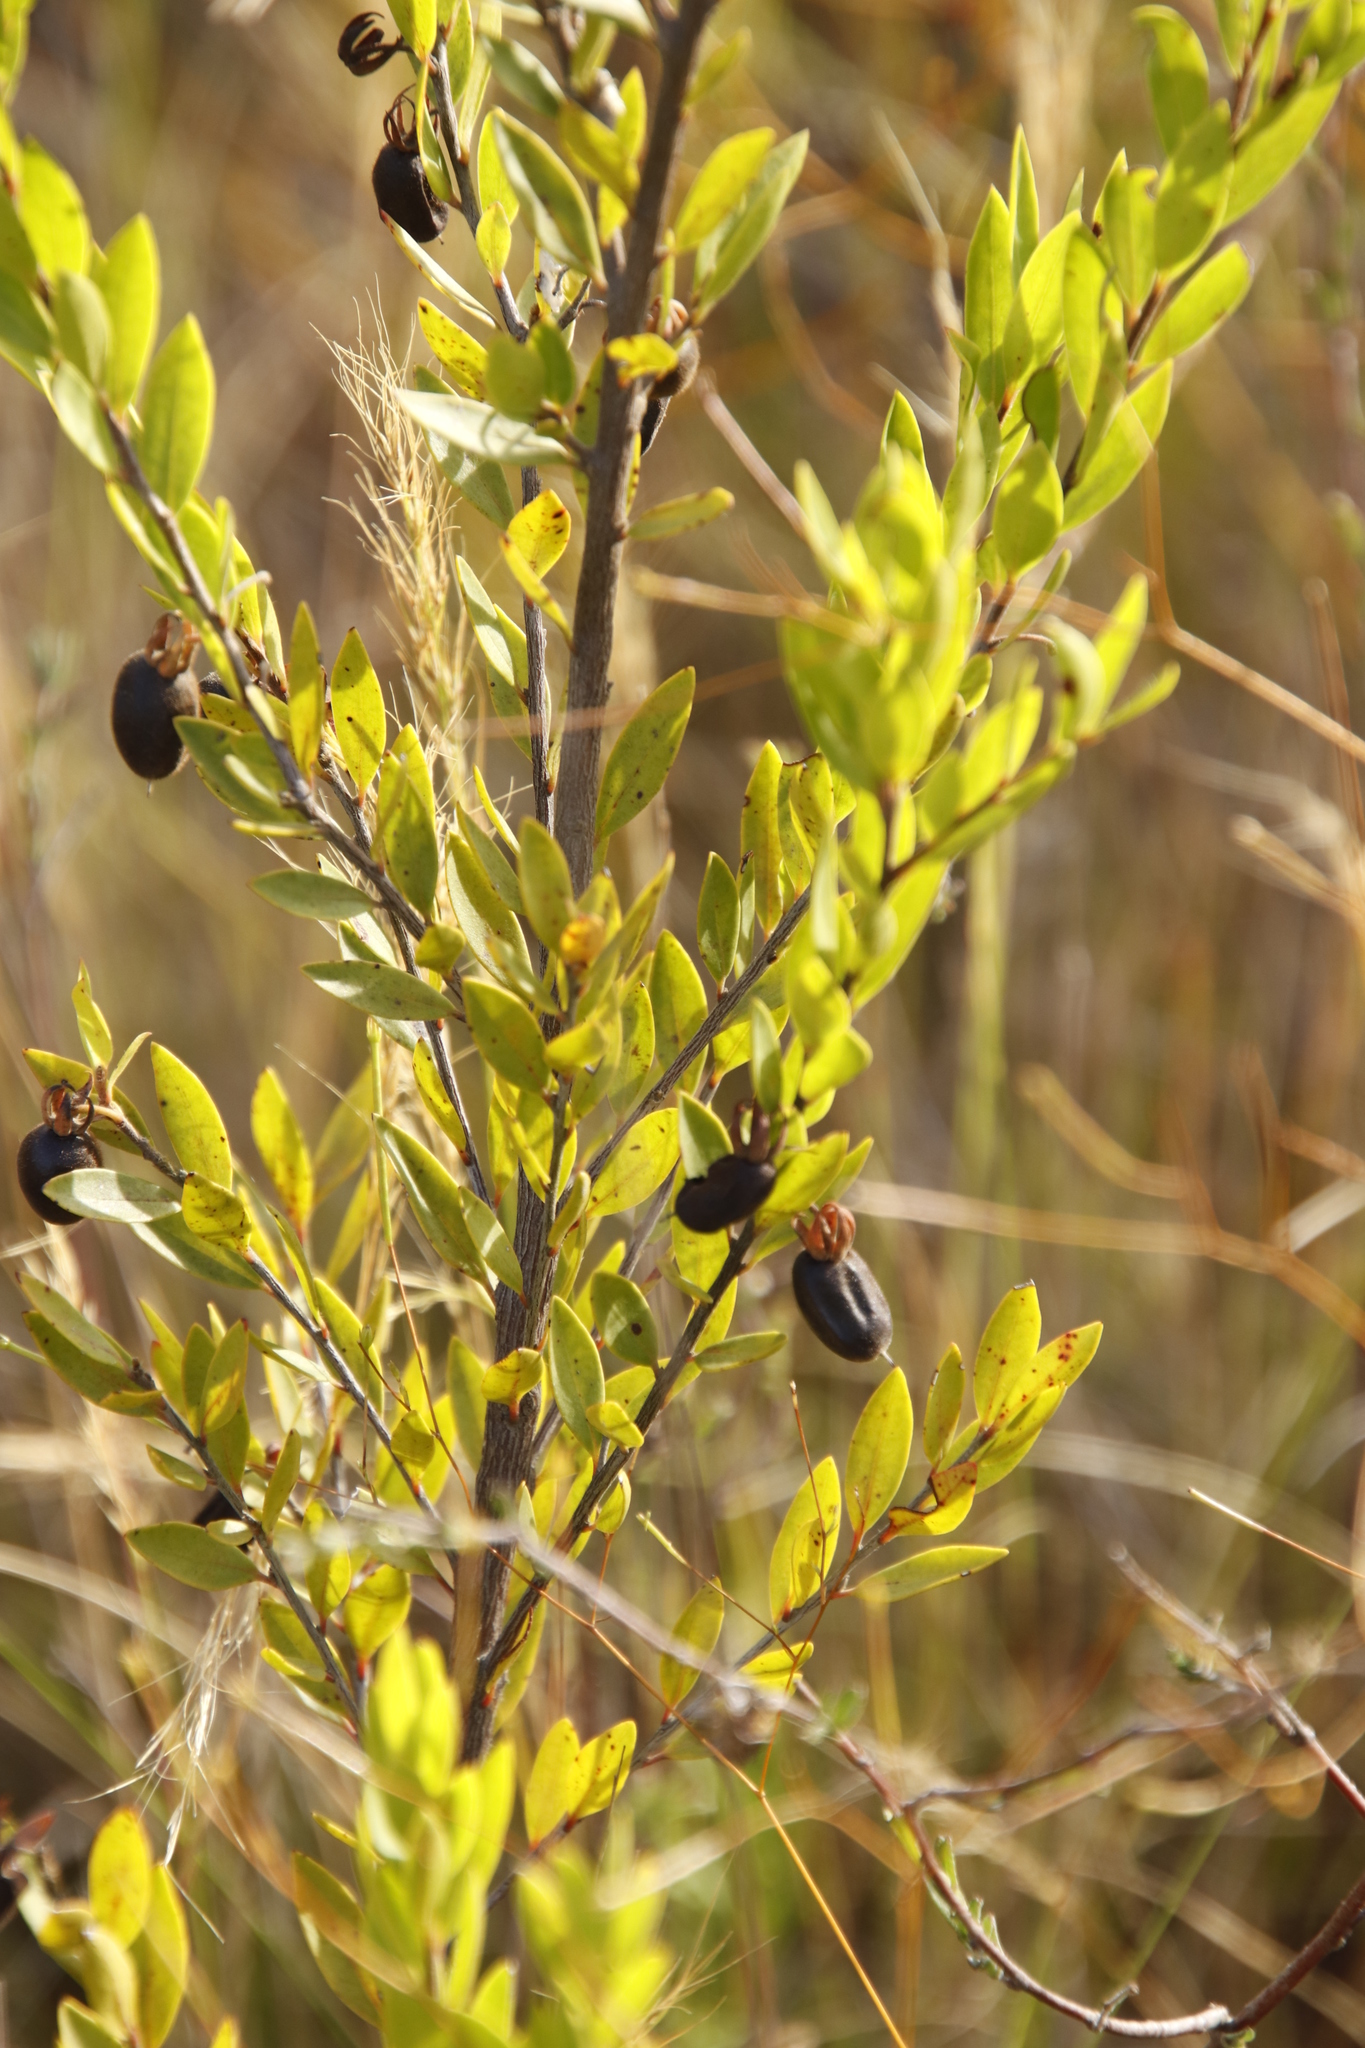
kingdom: Plantae
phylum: Tracheophyta
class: Magnoliopsida
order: Ericales
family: Ebenaceae
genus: Diospyros
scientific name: Diospyros glabra
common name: Fynbos star apple
